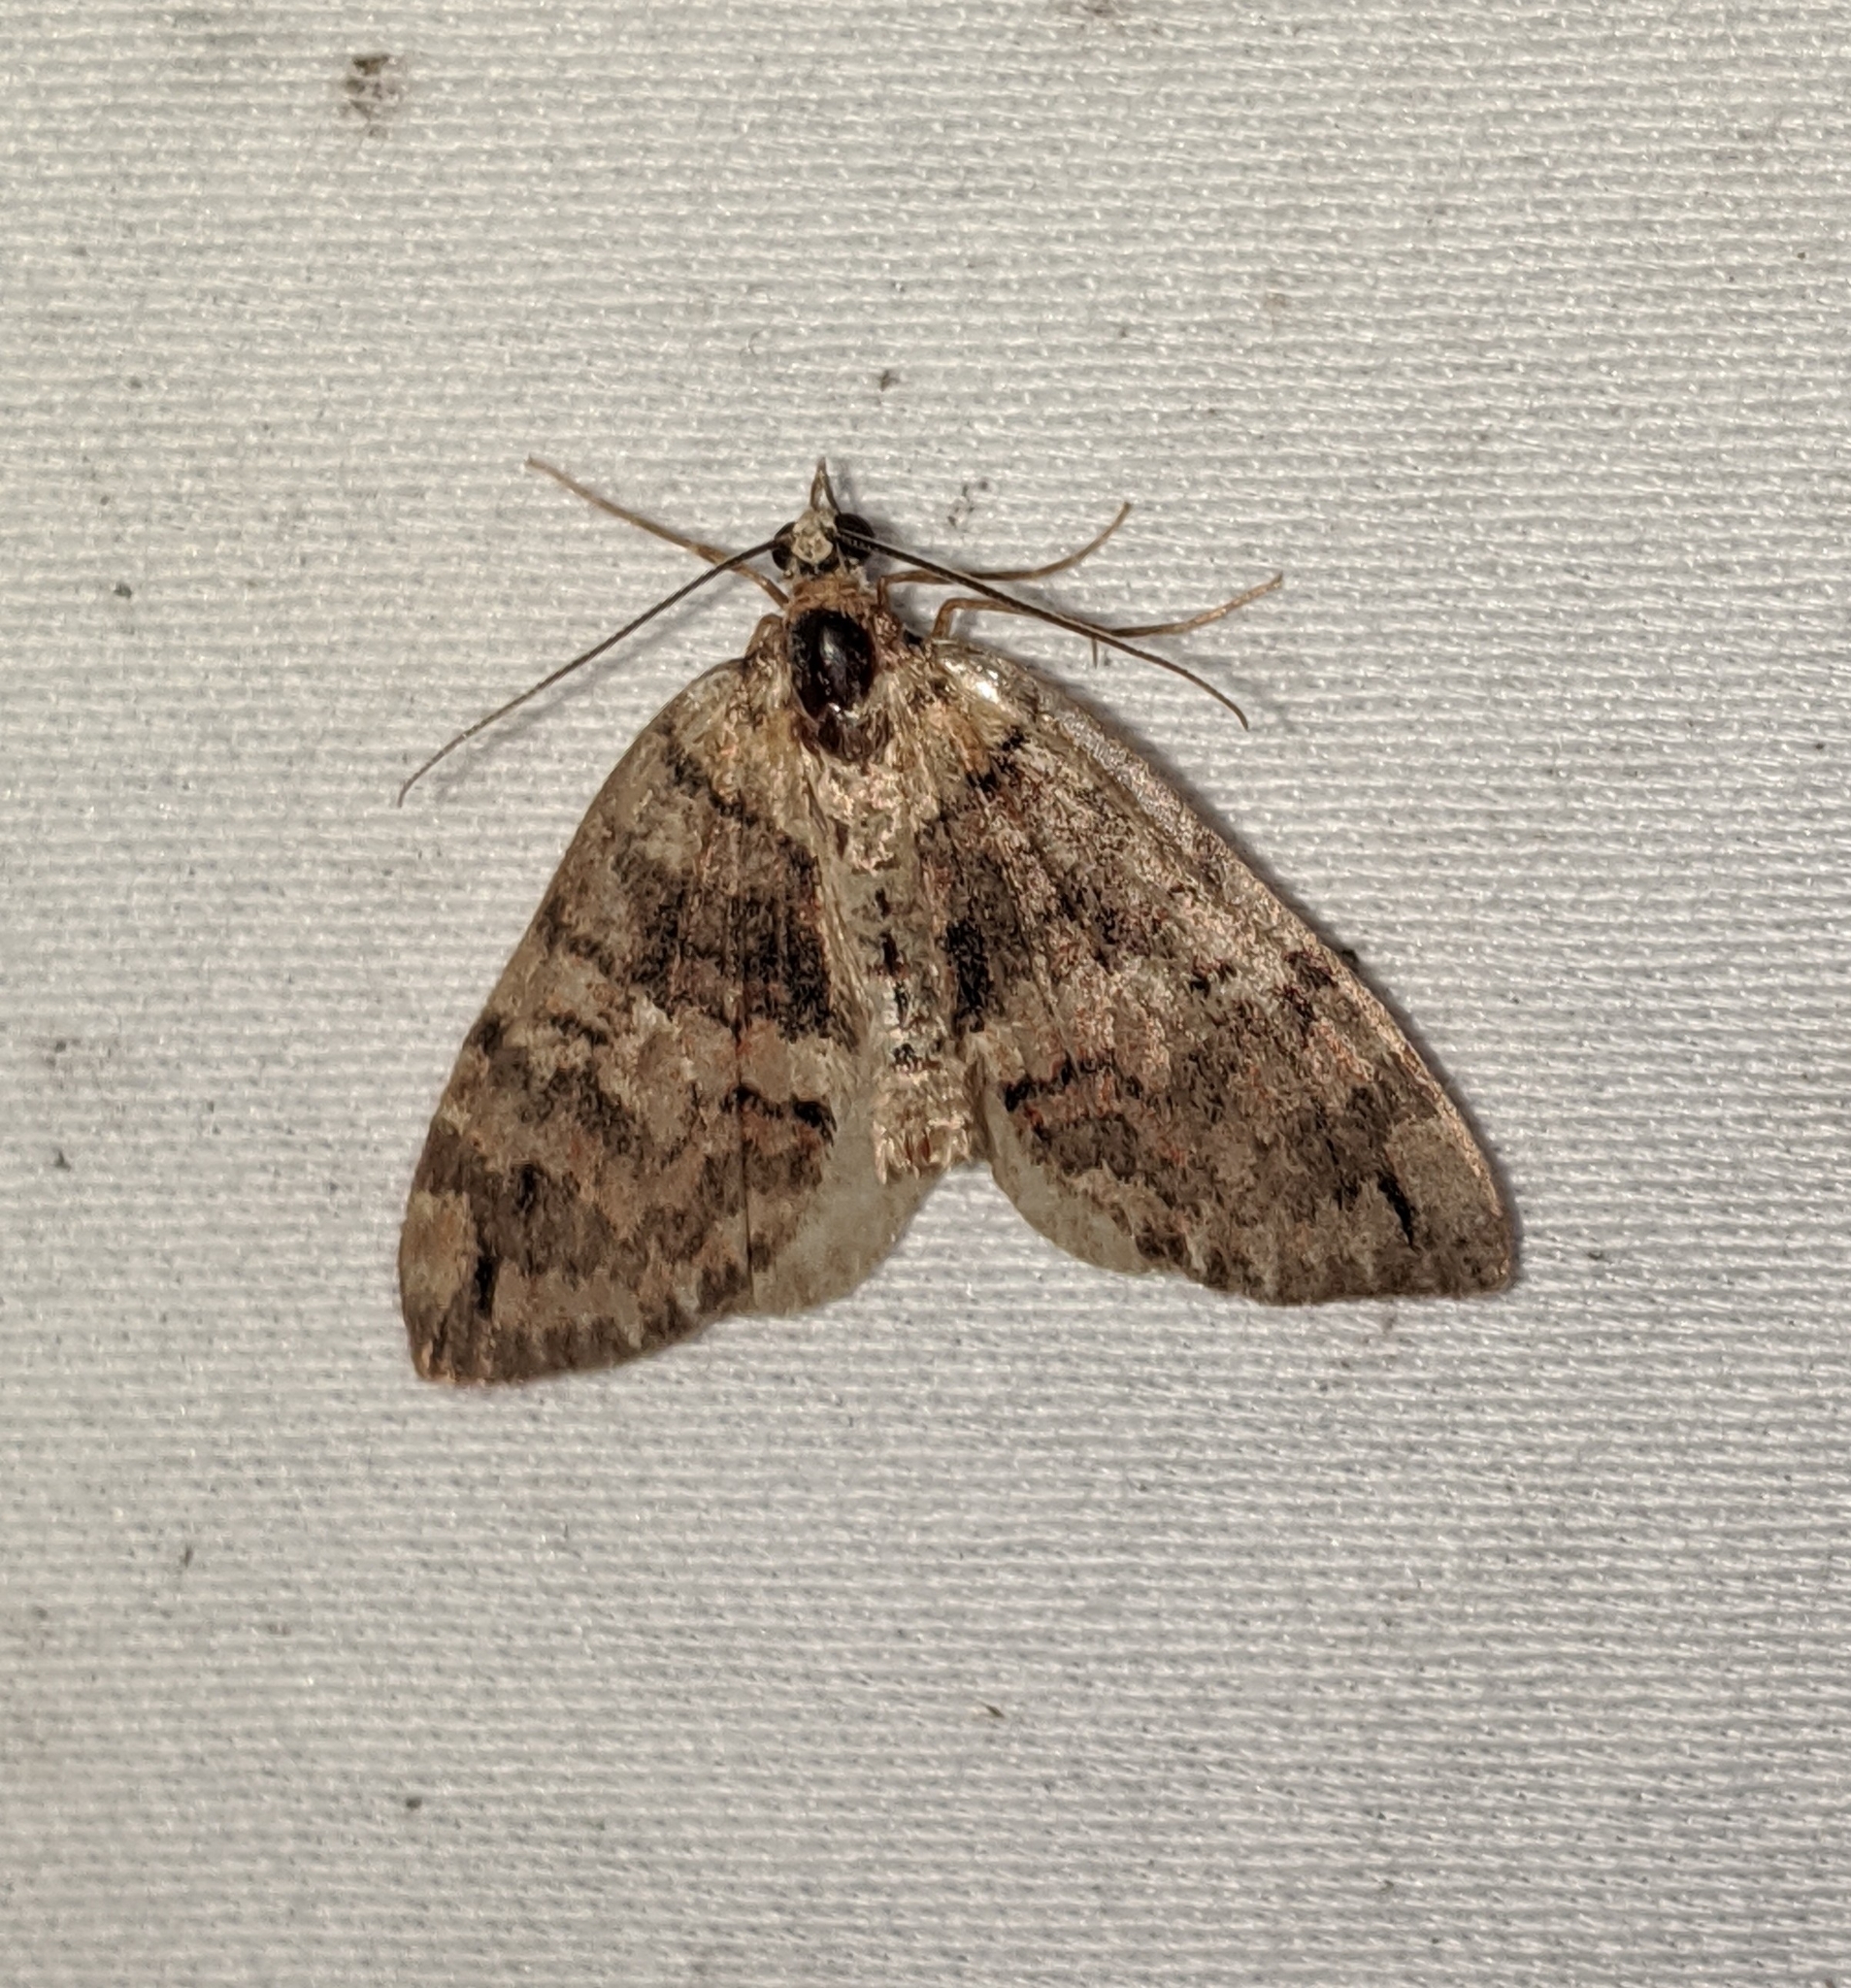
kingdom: Animalia
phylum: Arthropoda
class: Insecta
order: Lepidoptera
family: Geometridae
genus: Hydriomena
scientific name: Hydriomena marinata
